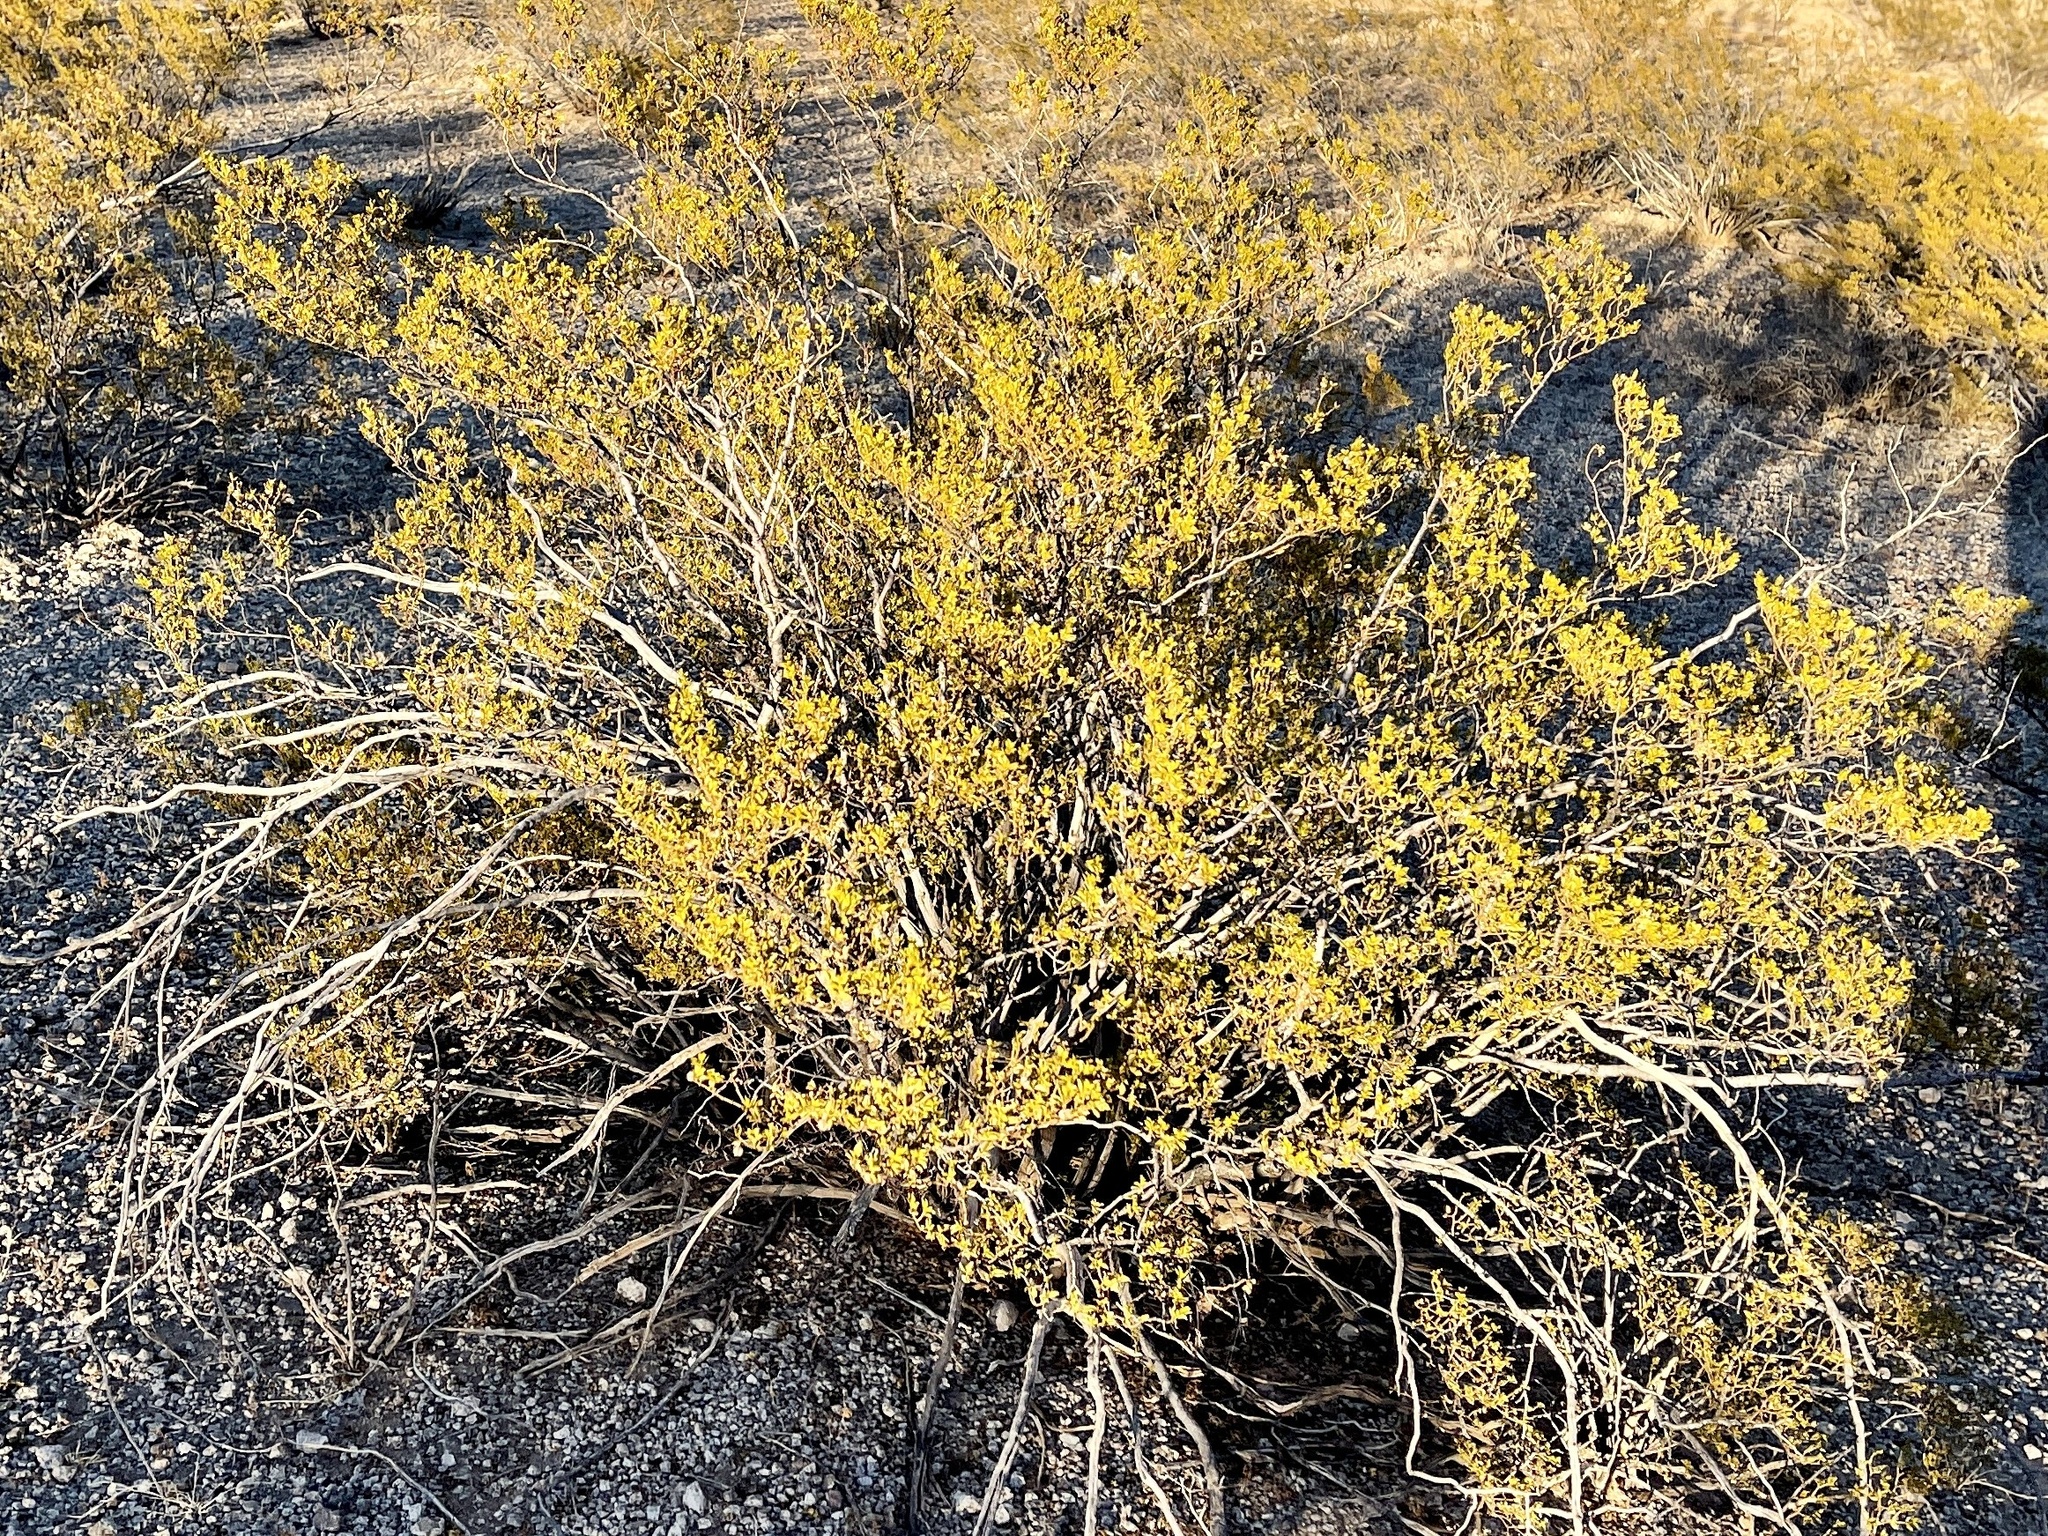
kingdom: Plantae
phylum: Tracheophyta
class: Magnoliopsida
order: Zygophyllales
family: Zygophyllaceae
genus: Larrea
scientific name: Larrea tridentata
